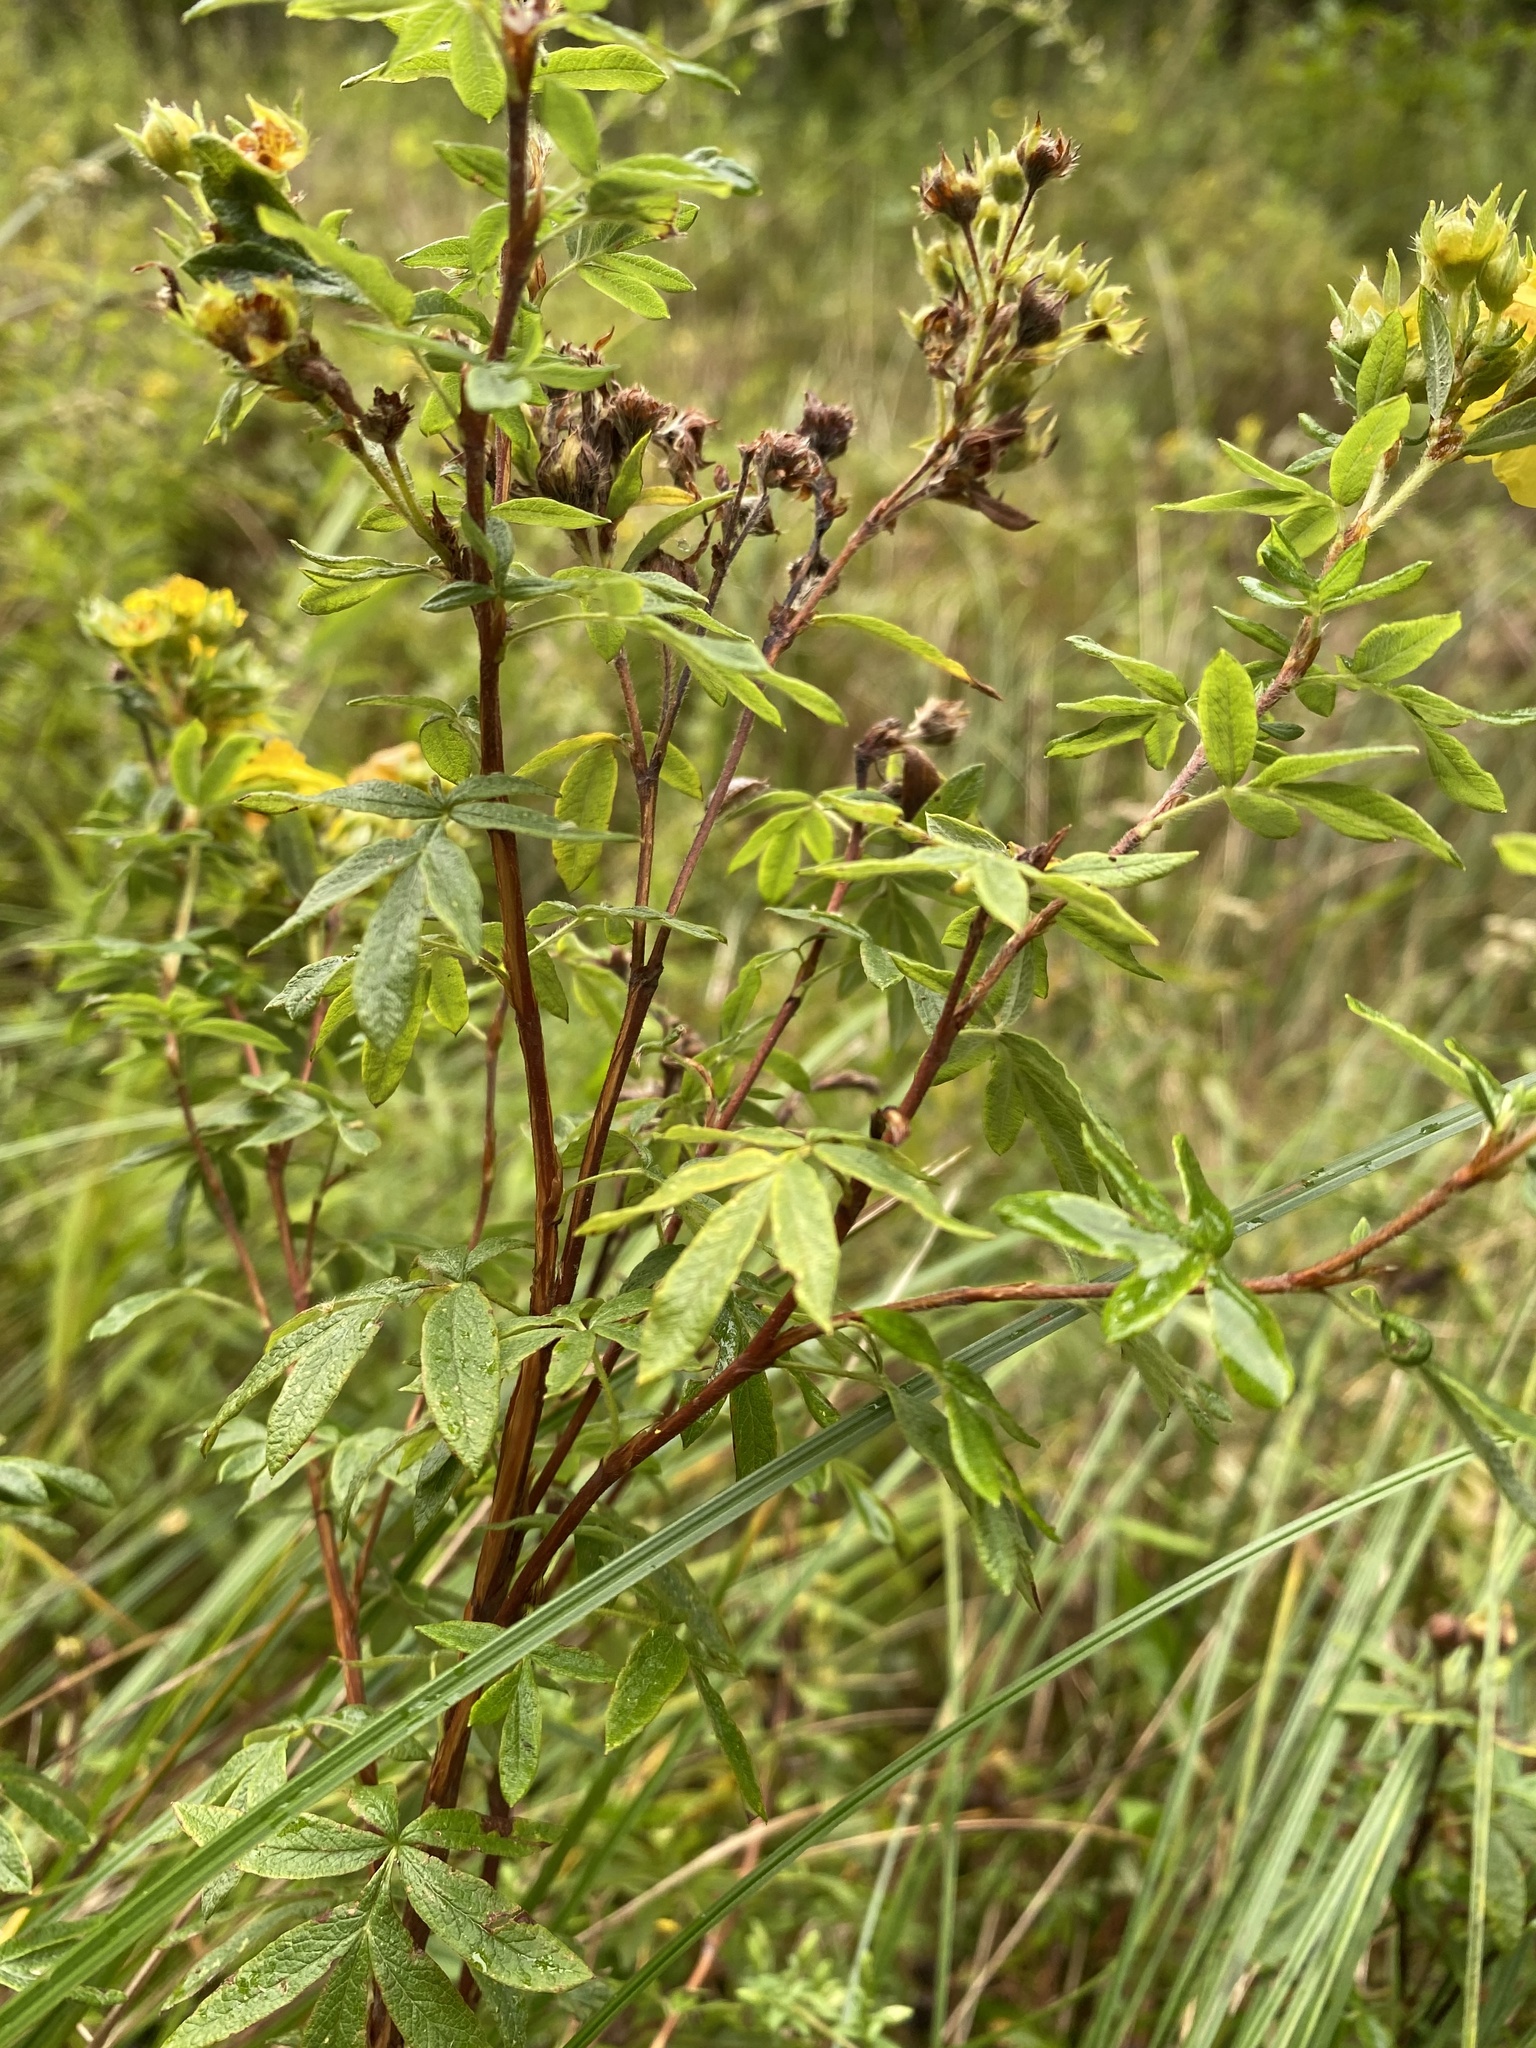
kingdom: Plantae
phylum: Tracheophyta
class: Magnoliopsida
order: Rosales
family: Rosaceae
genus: Dasiphora
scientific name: Dasiphora fruticosa
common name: Shrubby cinquefoil
